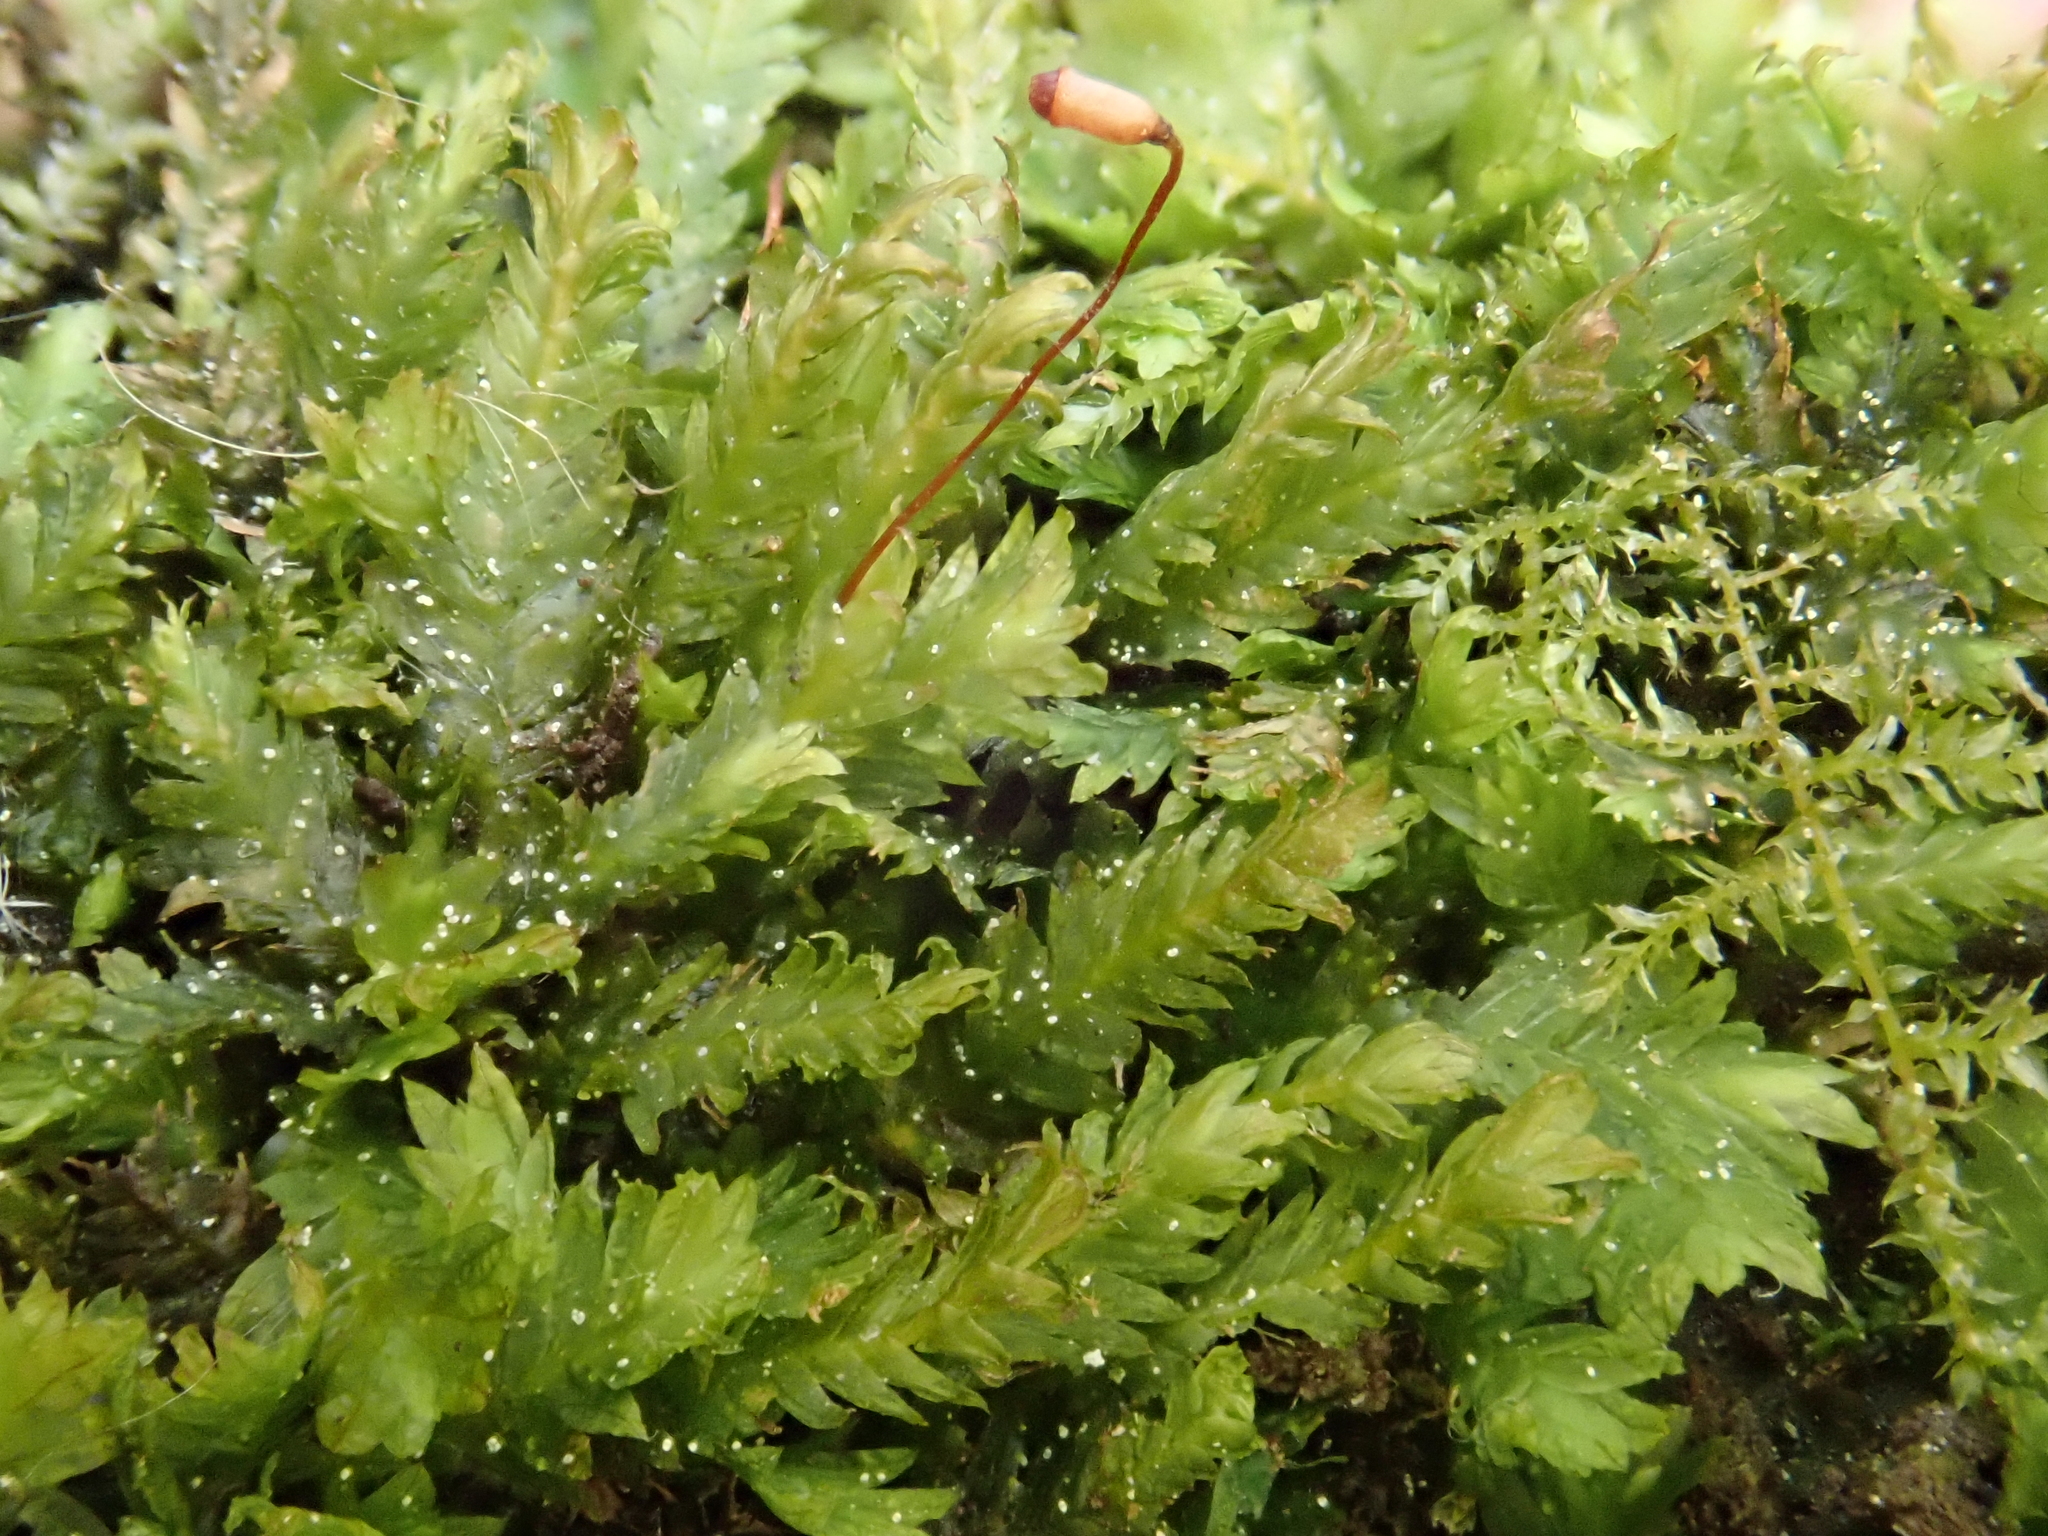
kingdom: Plantae
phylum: Bryophyta
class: Bryopsida
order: Dicranales
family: Fissidentaceae
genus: Fissidens
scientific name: Fissidens taxifolius
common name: Yew-leaved pocket moss
